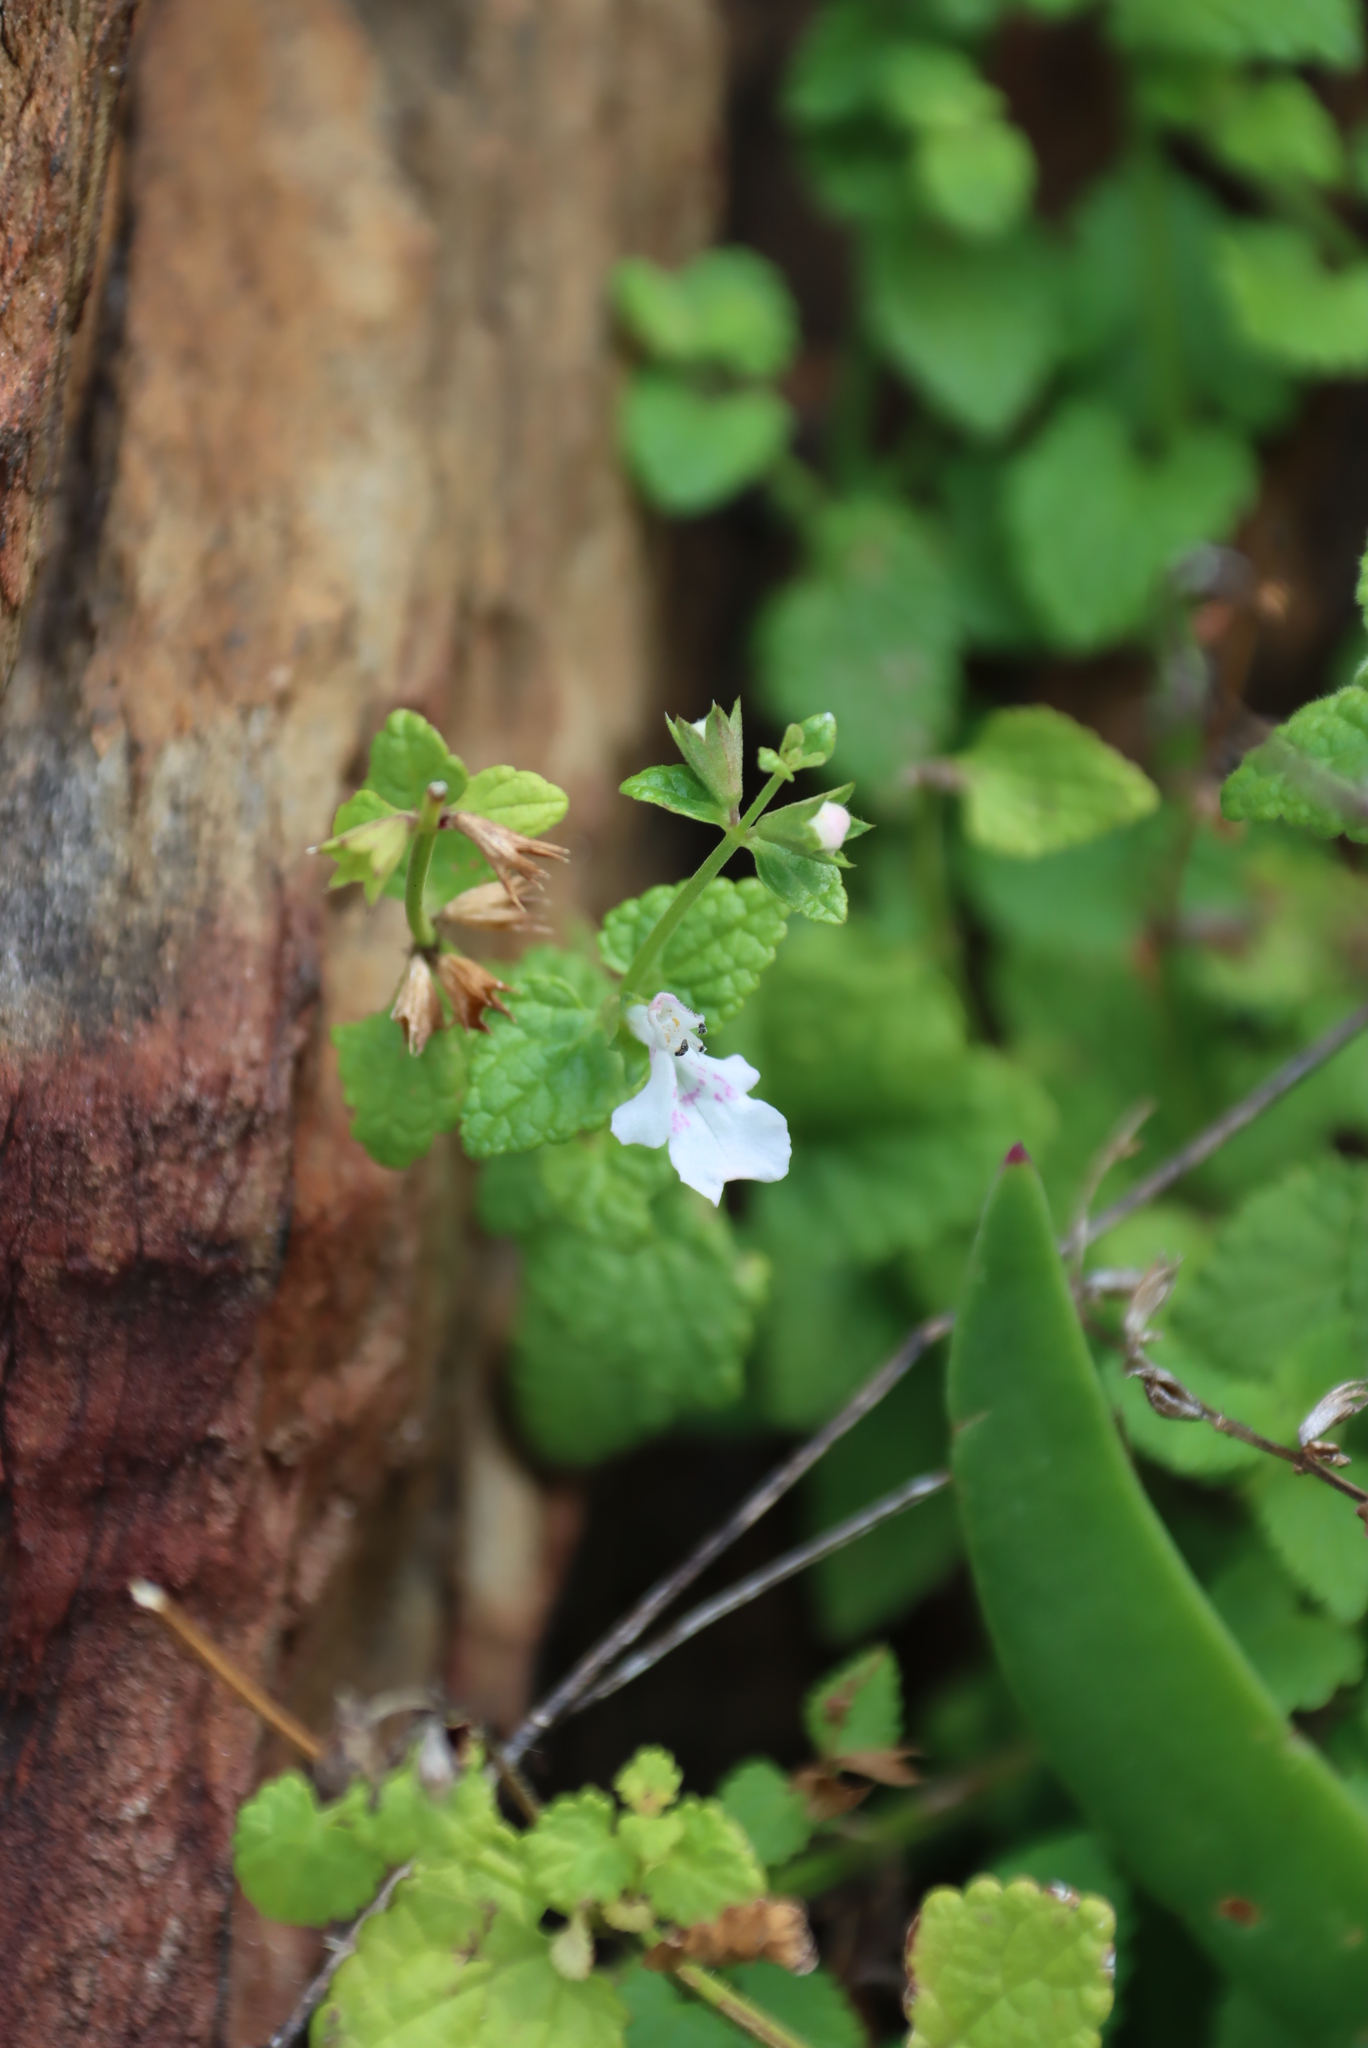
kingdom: Plantae
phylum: Tracheophyta
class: Magnoliopsida
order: Lamiales
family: Lamiaceae
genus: Stachys
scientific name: Stachys aethiopica
